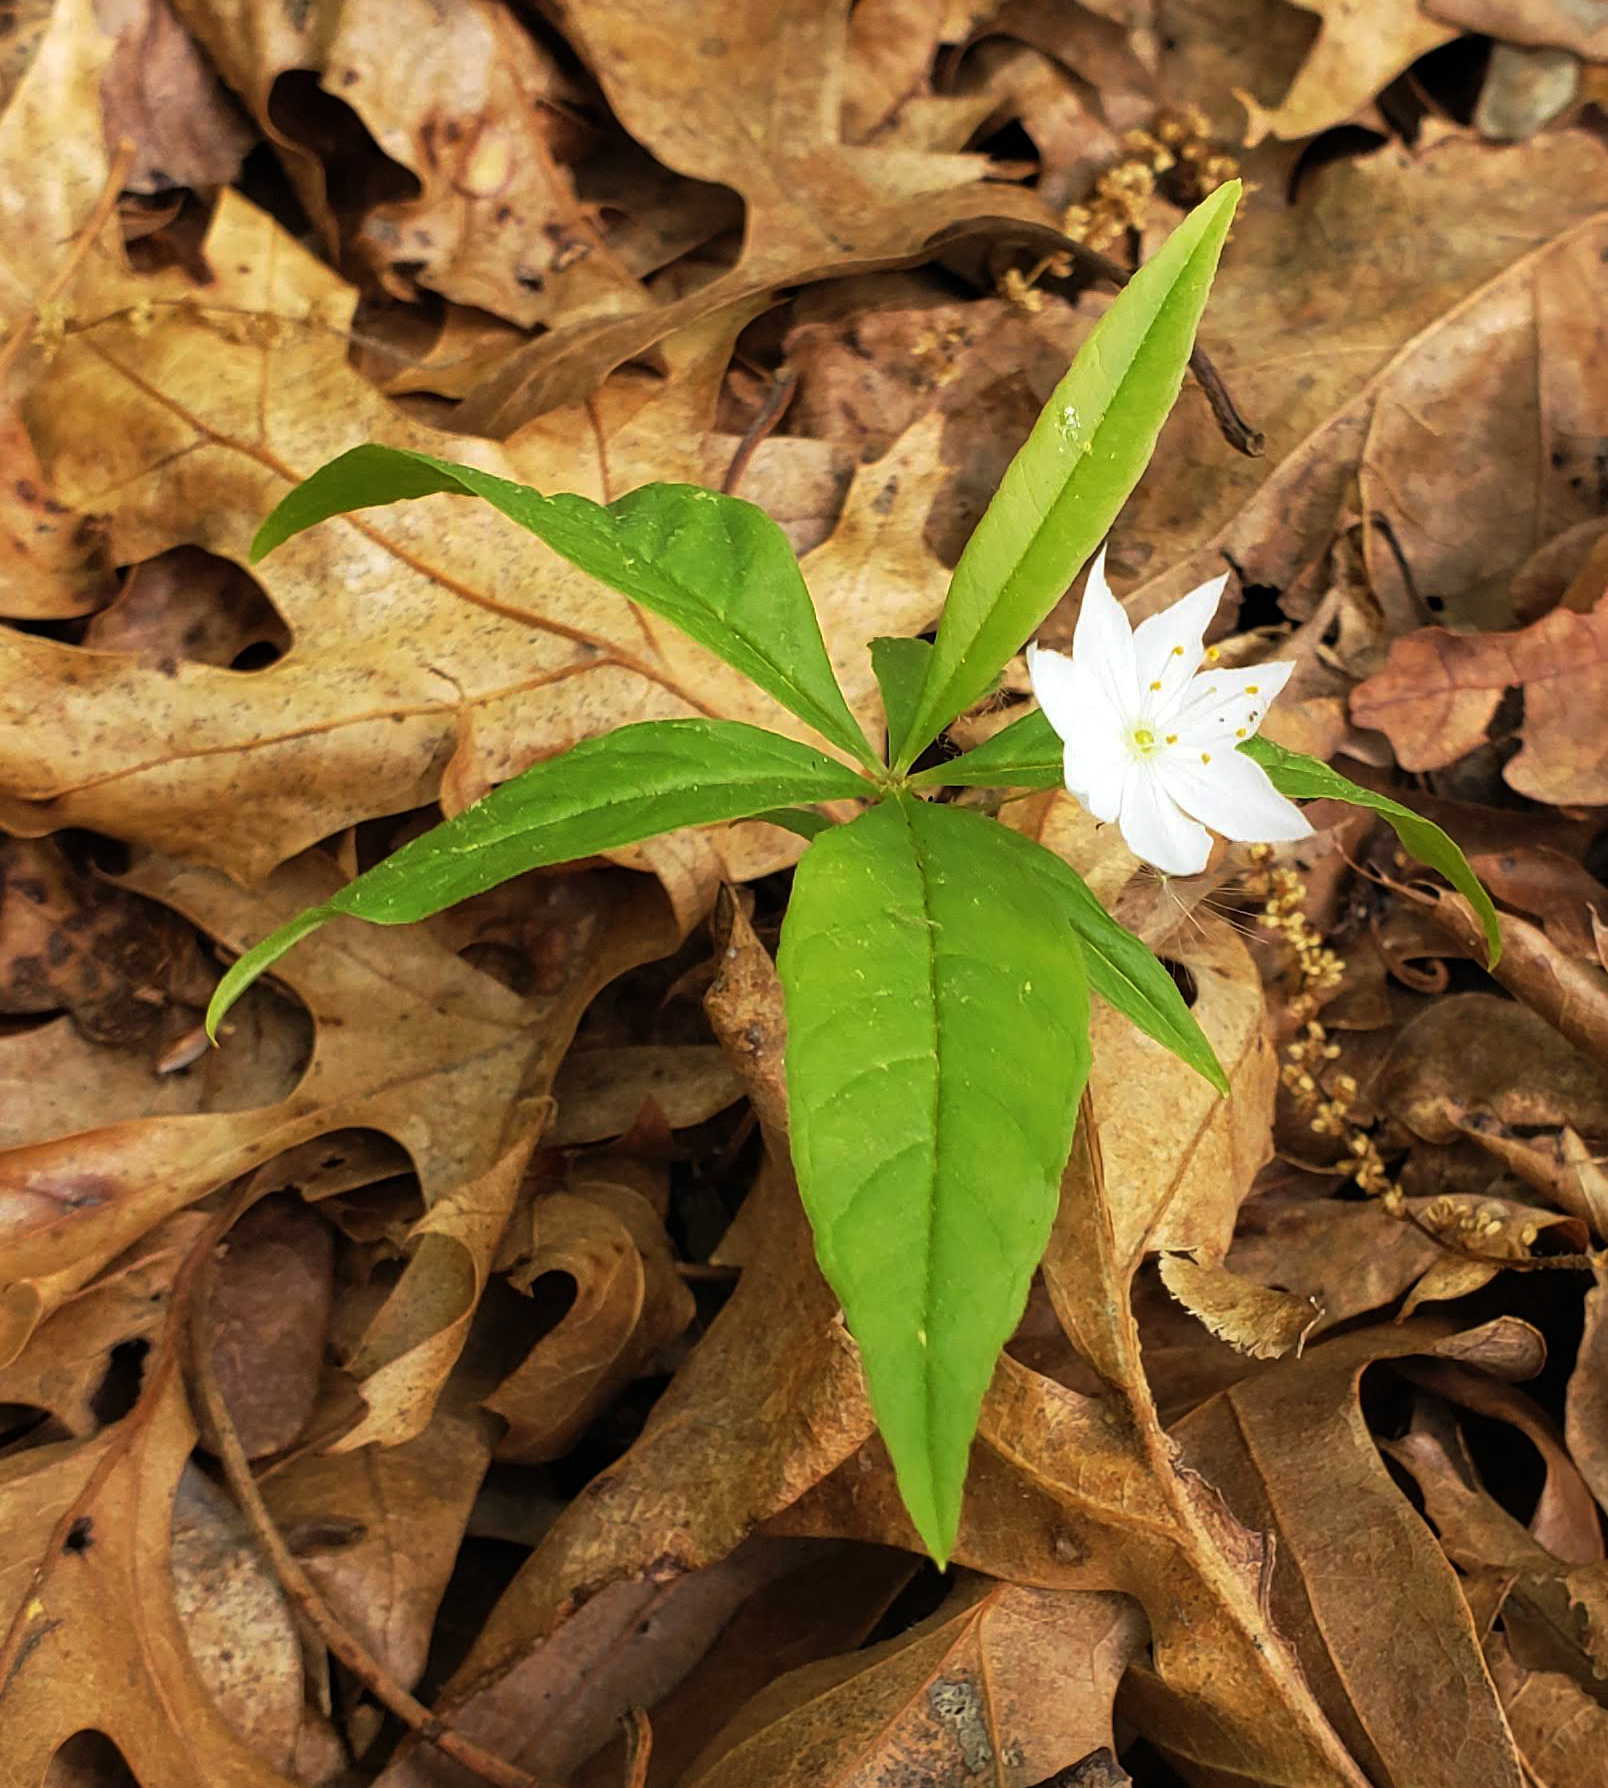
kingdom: Plantae
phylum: Tracheophyta
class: Magnoliopsida
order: Ericales
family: Primulaceae
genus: Lysimachia
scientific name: Lysimachia borealis
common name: American starflower
